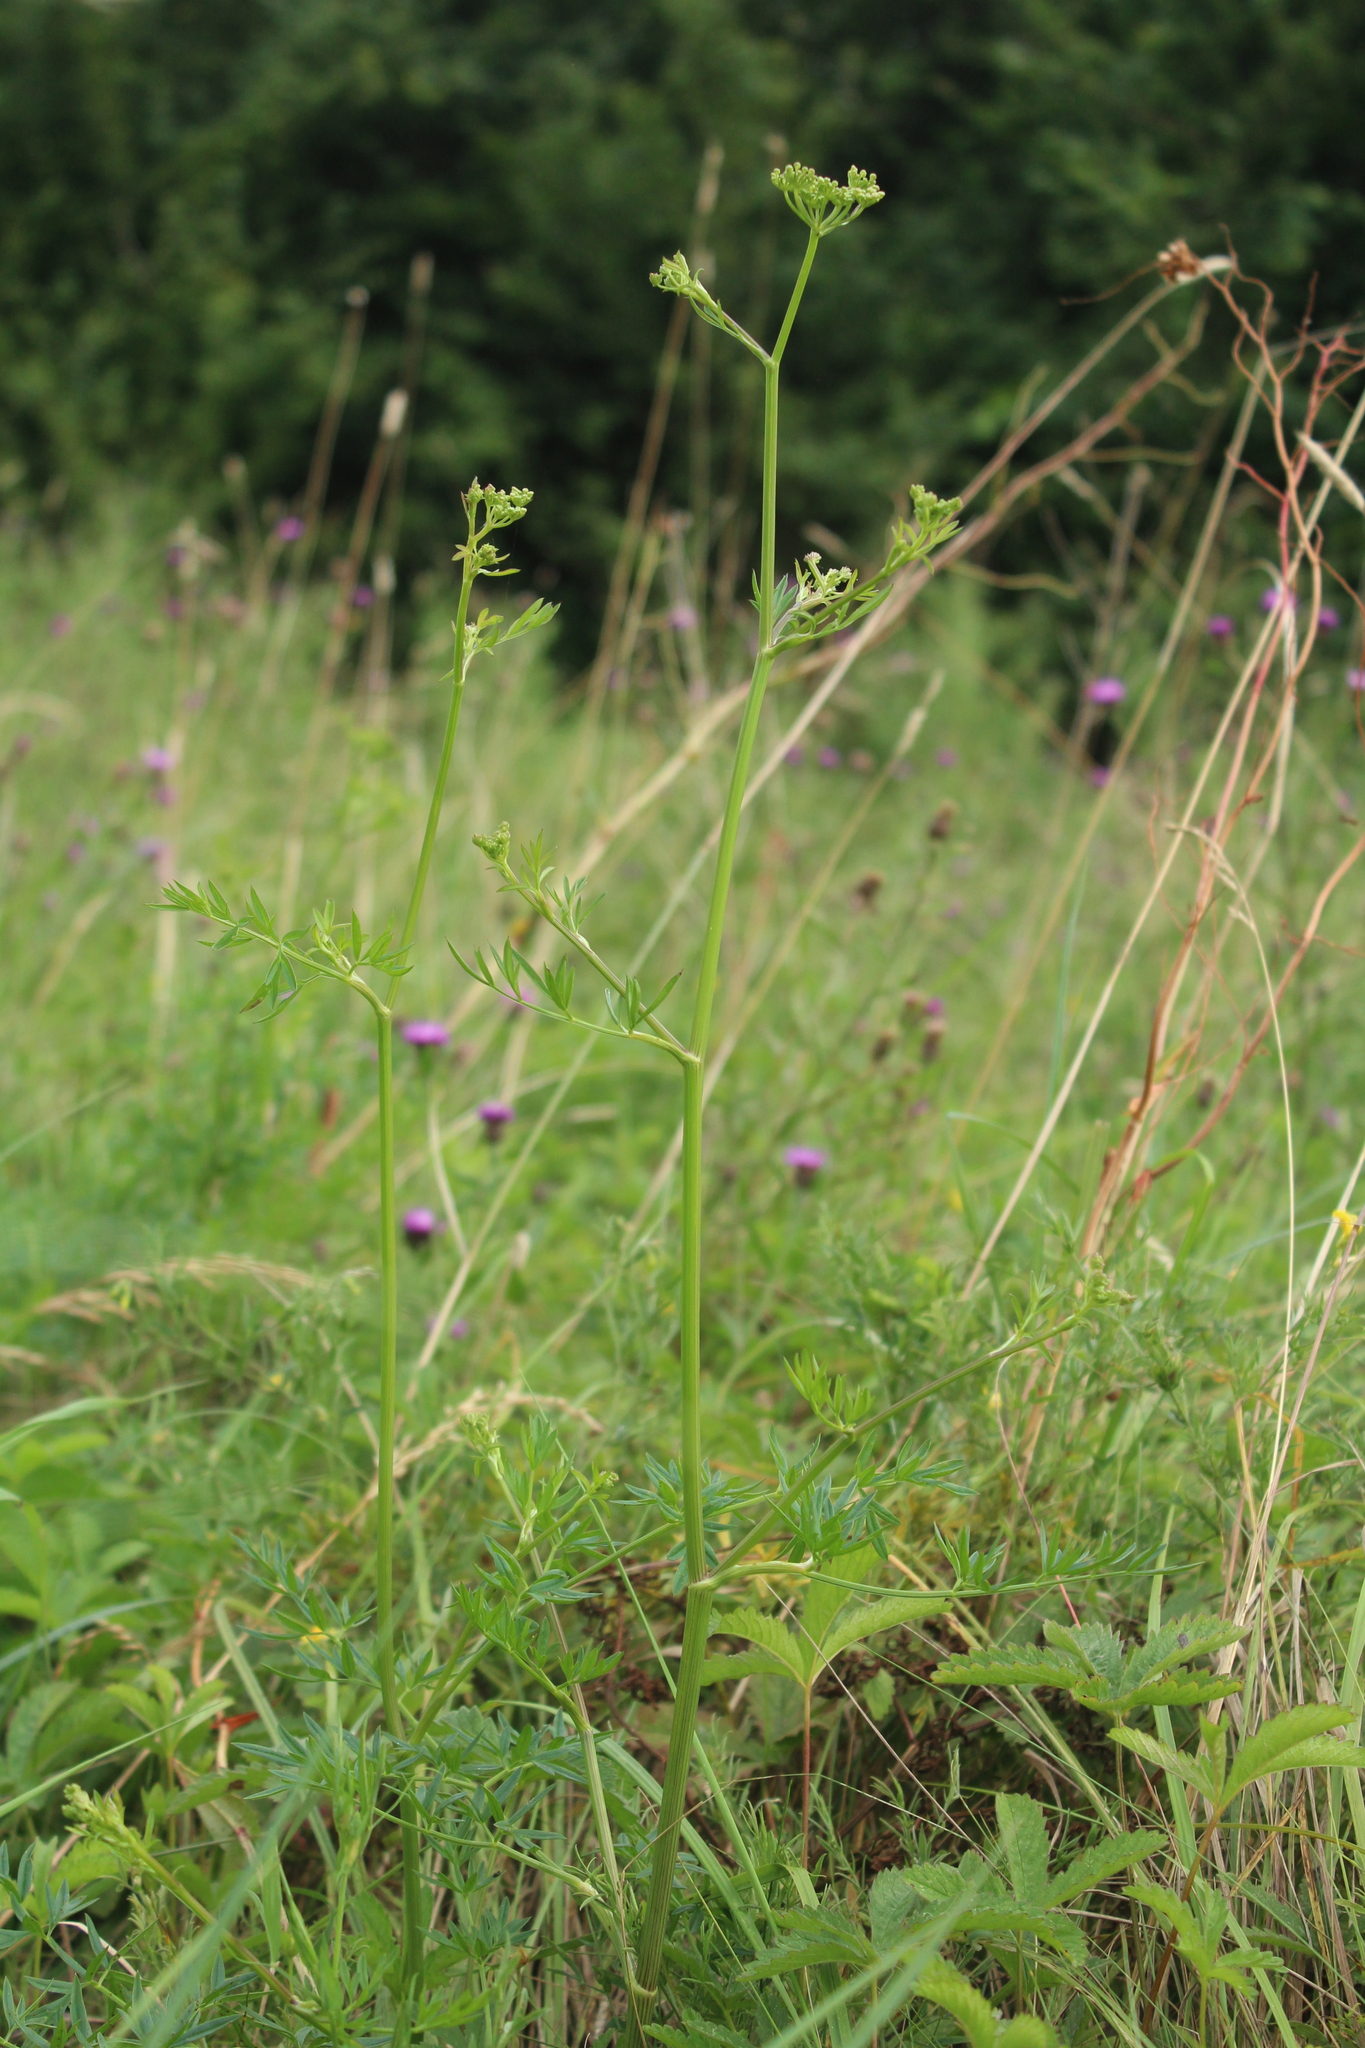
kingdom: Plantae
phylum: Tracheophyta
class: Magnoliopsida
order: Apiales
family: Apiaceae
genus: Silaum
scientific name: Silaum silaus
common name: Pepper-saxifrage
